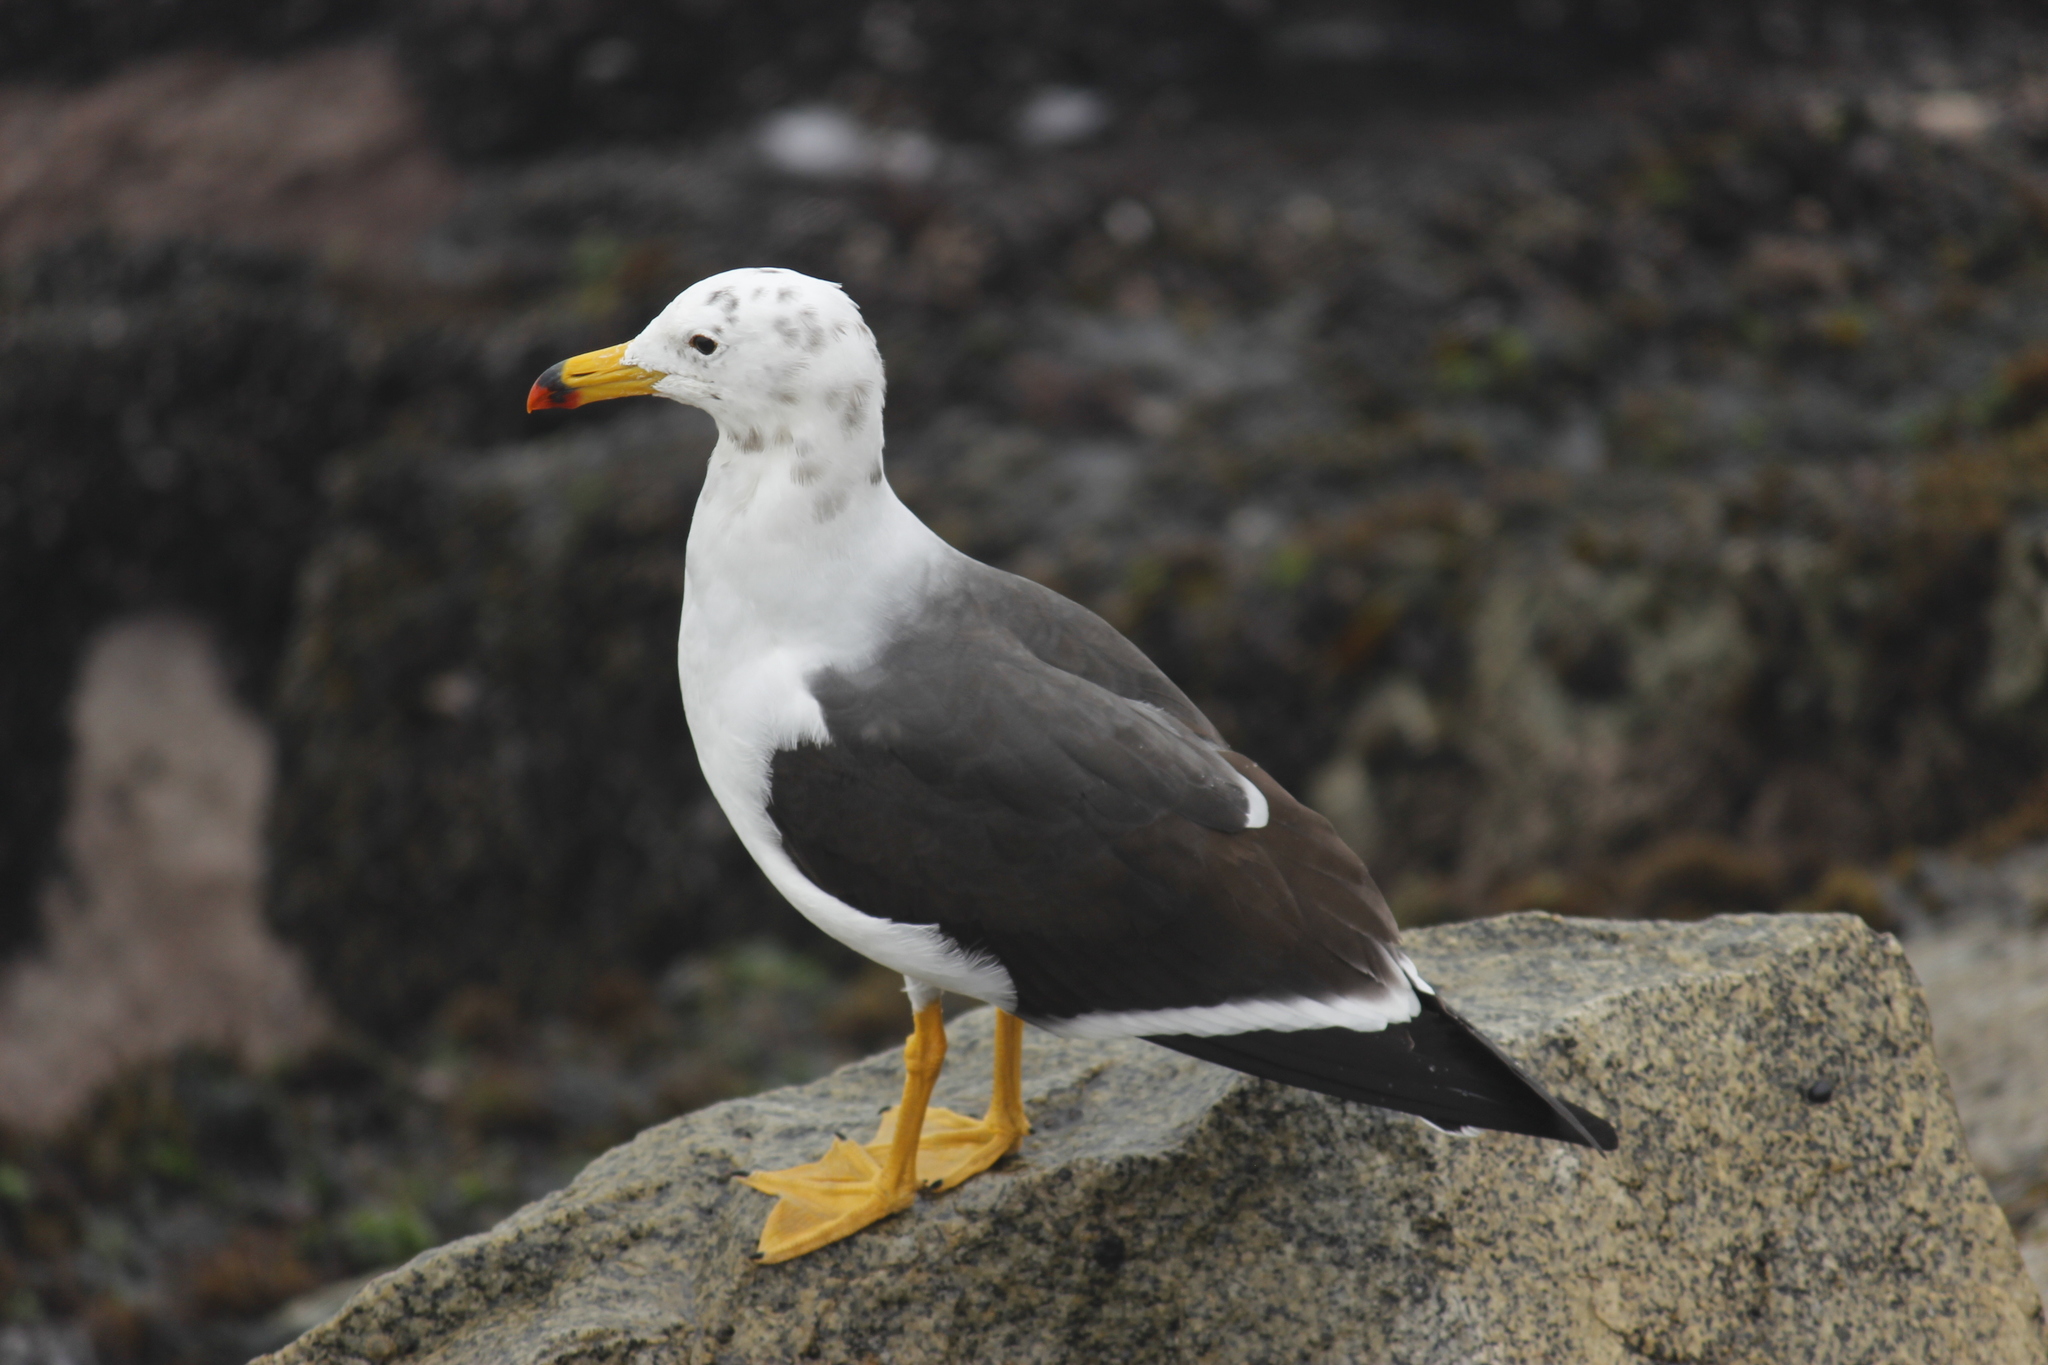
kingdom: Animalia
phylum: Chordata
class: Aves
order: Charadriiformes
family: Laridae
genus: Larus
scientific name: Larus belcheri
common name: Belcher's gull
